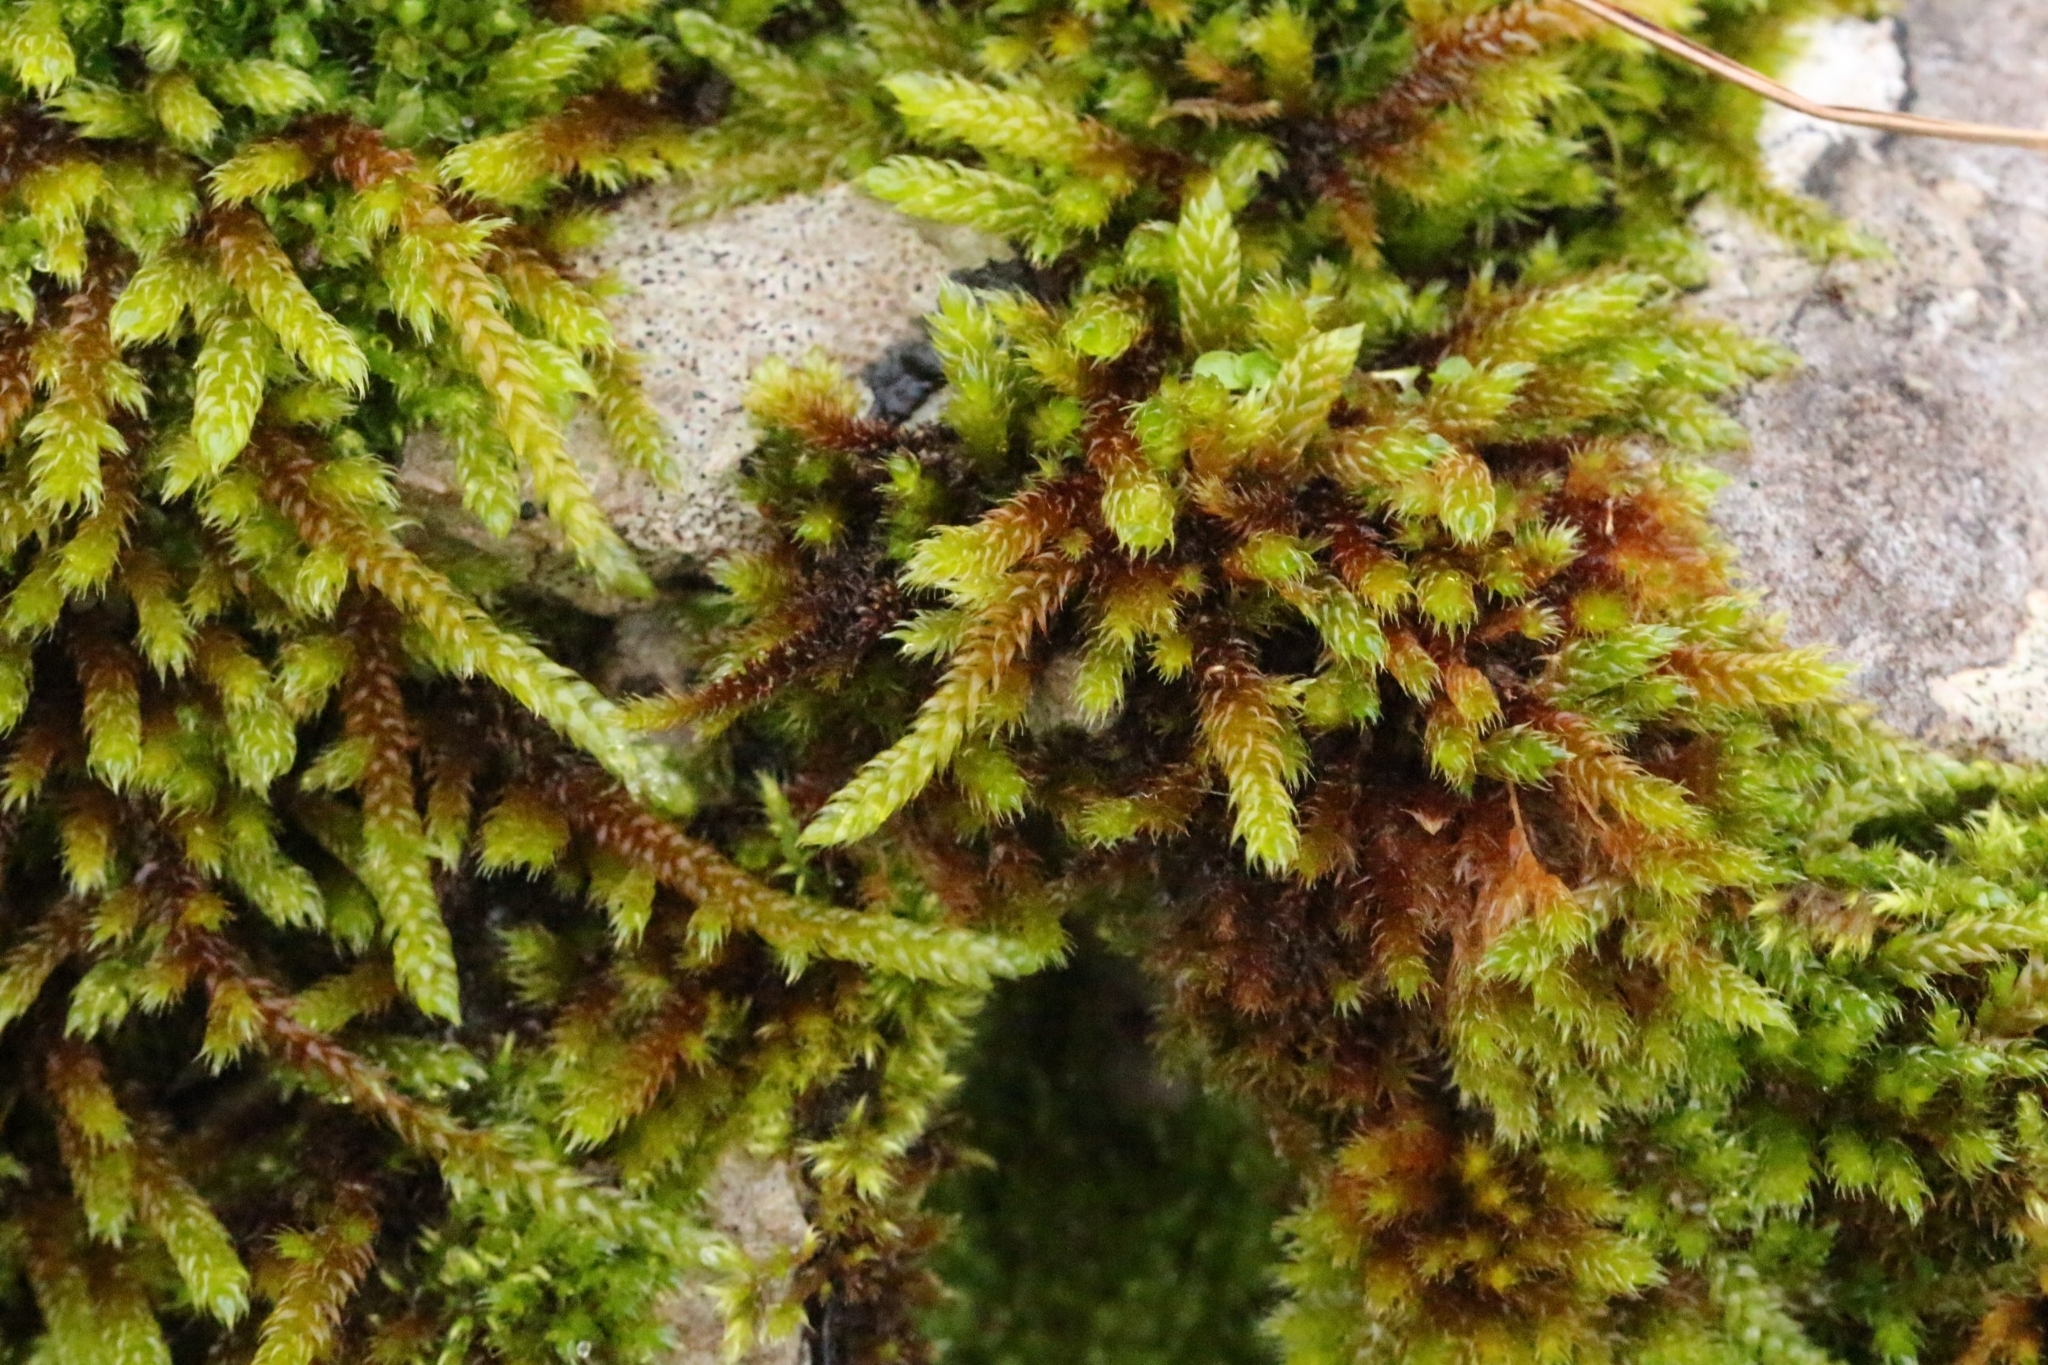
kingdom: Plantae
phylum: Bryophyta
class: Bryopsida
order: Hypnales
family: Hypnaceae
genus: Hypnum
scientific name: Hypnum cupressiforme
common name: Cypress-leaved plait-moss
